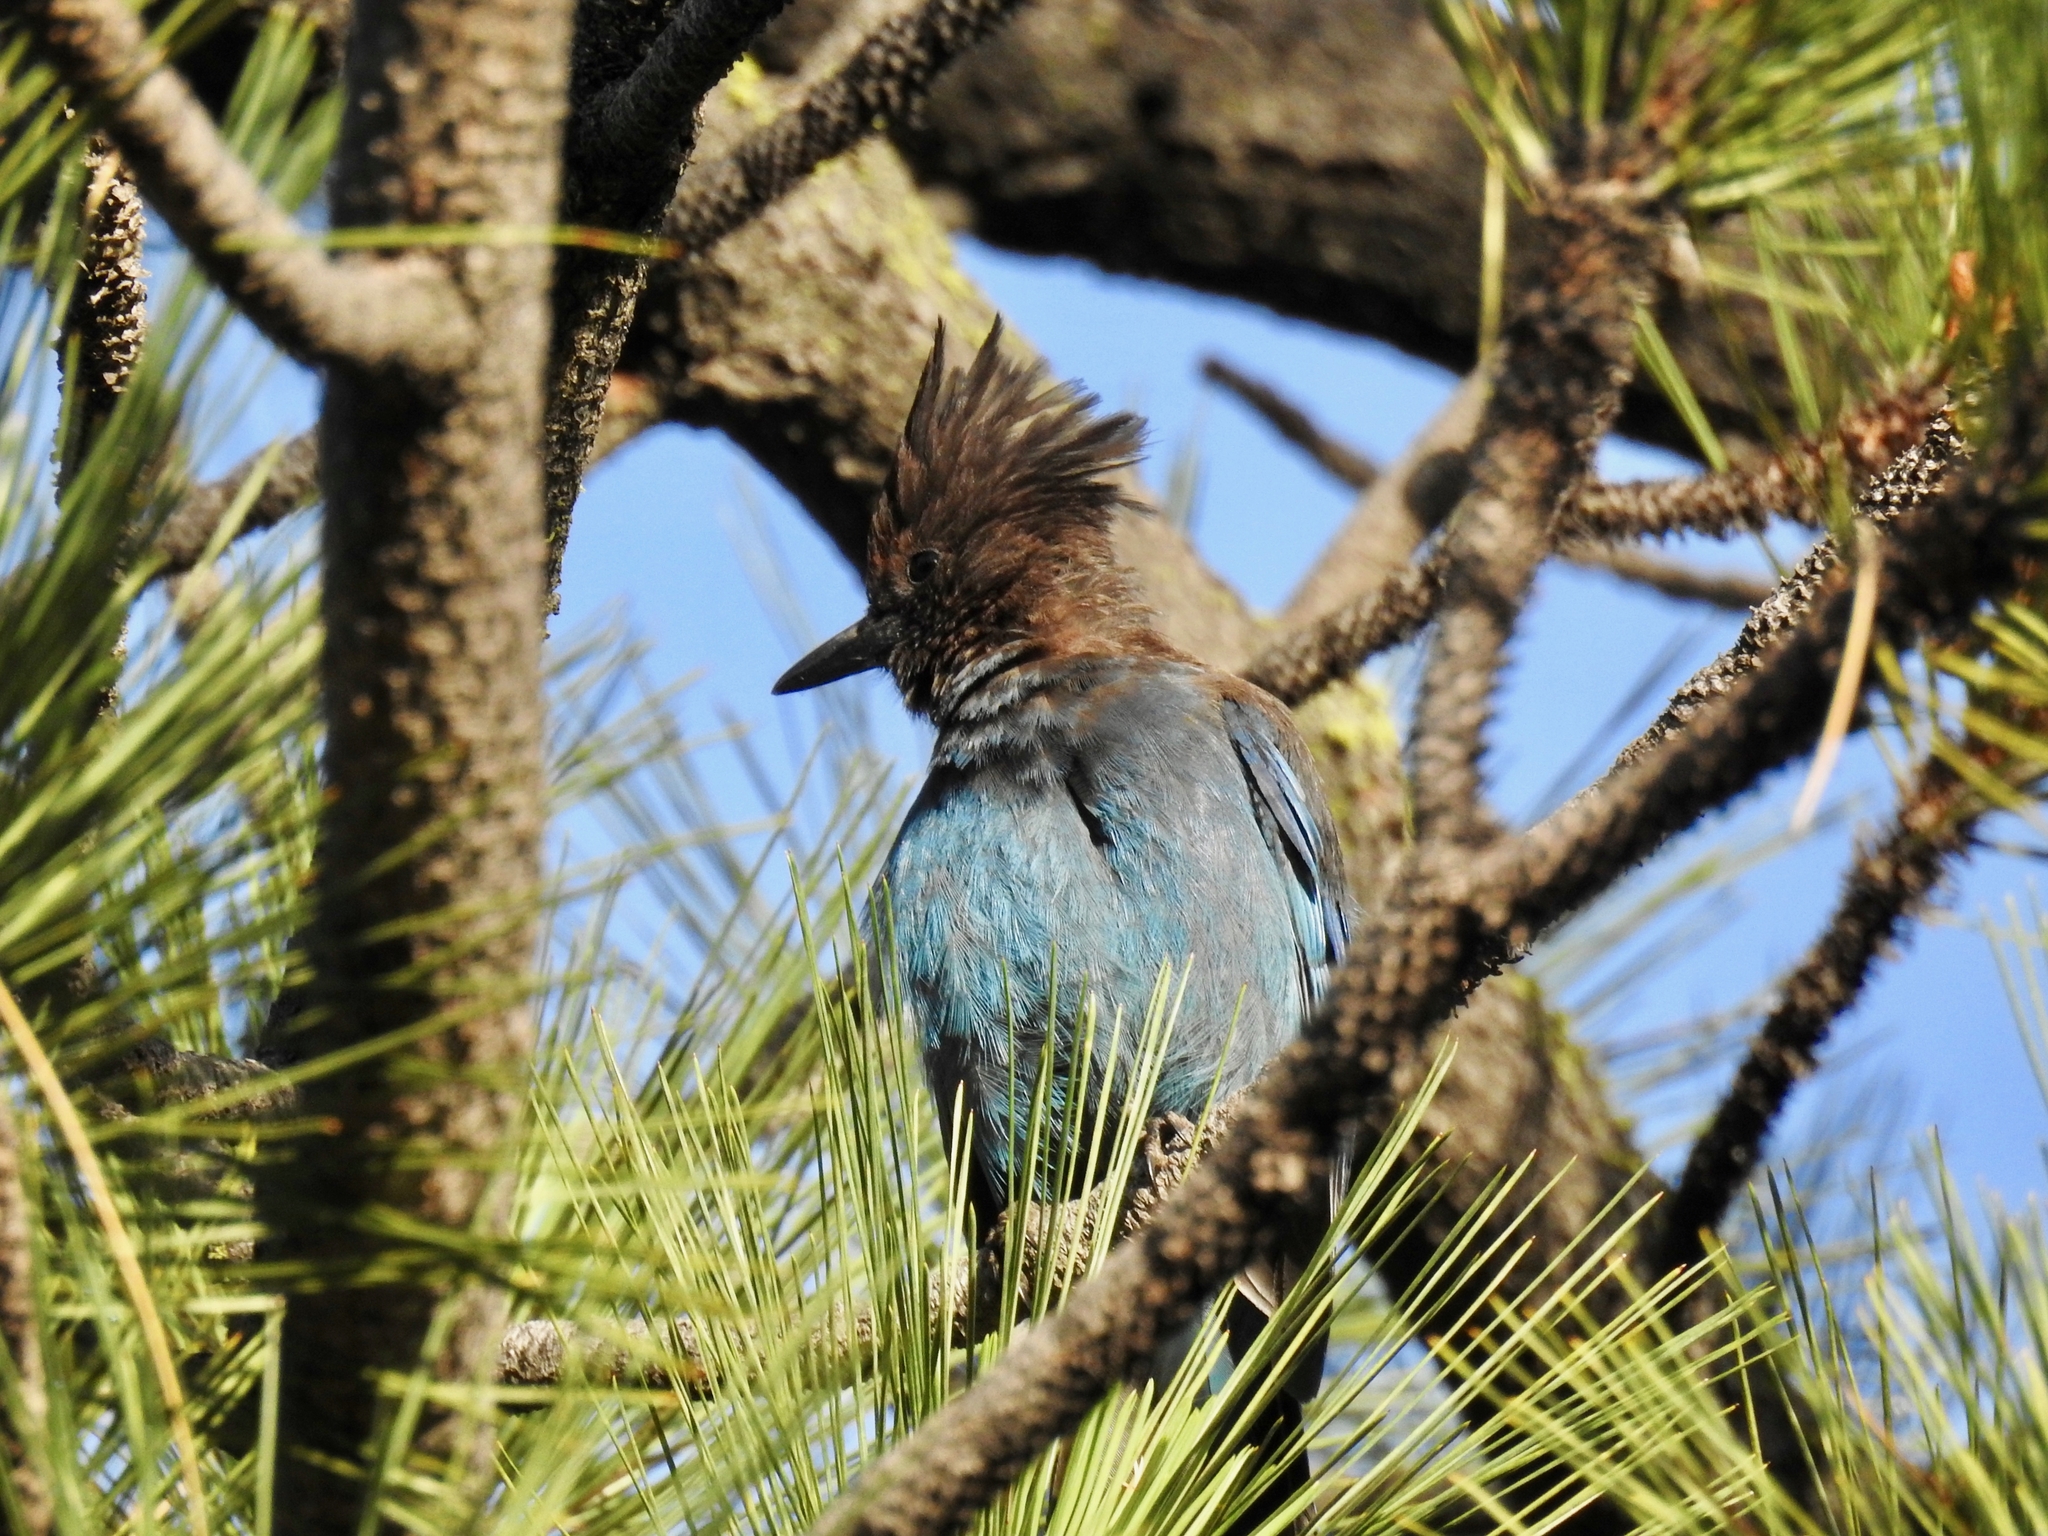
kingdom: Animalia
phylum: Chordata
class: Aves
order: Passeriformes
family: Corvidae
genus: Cyanocitta
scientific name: Cyanocitta stelleri
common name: Steller's jay
